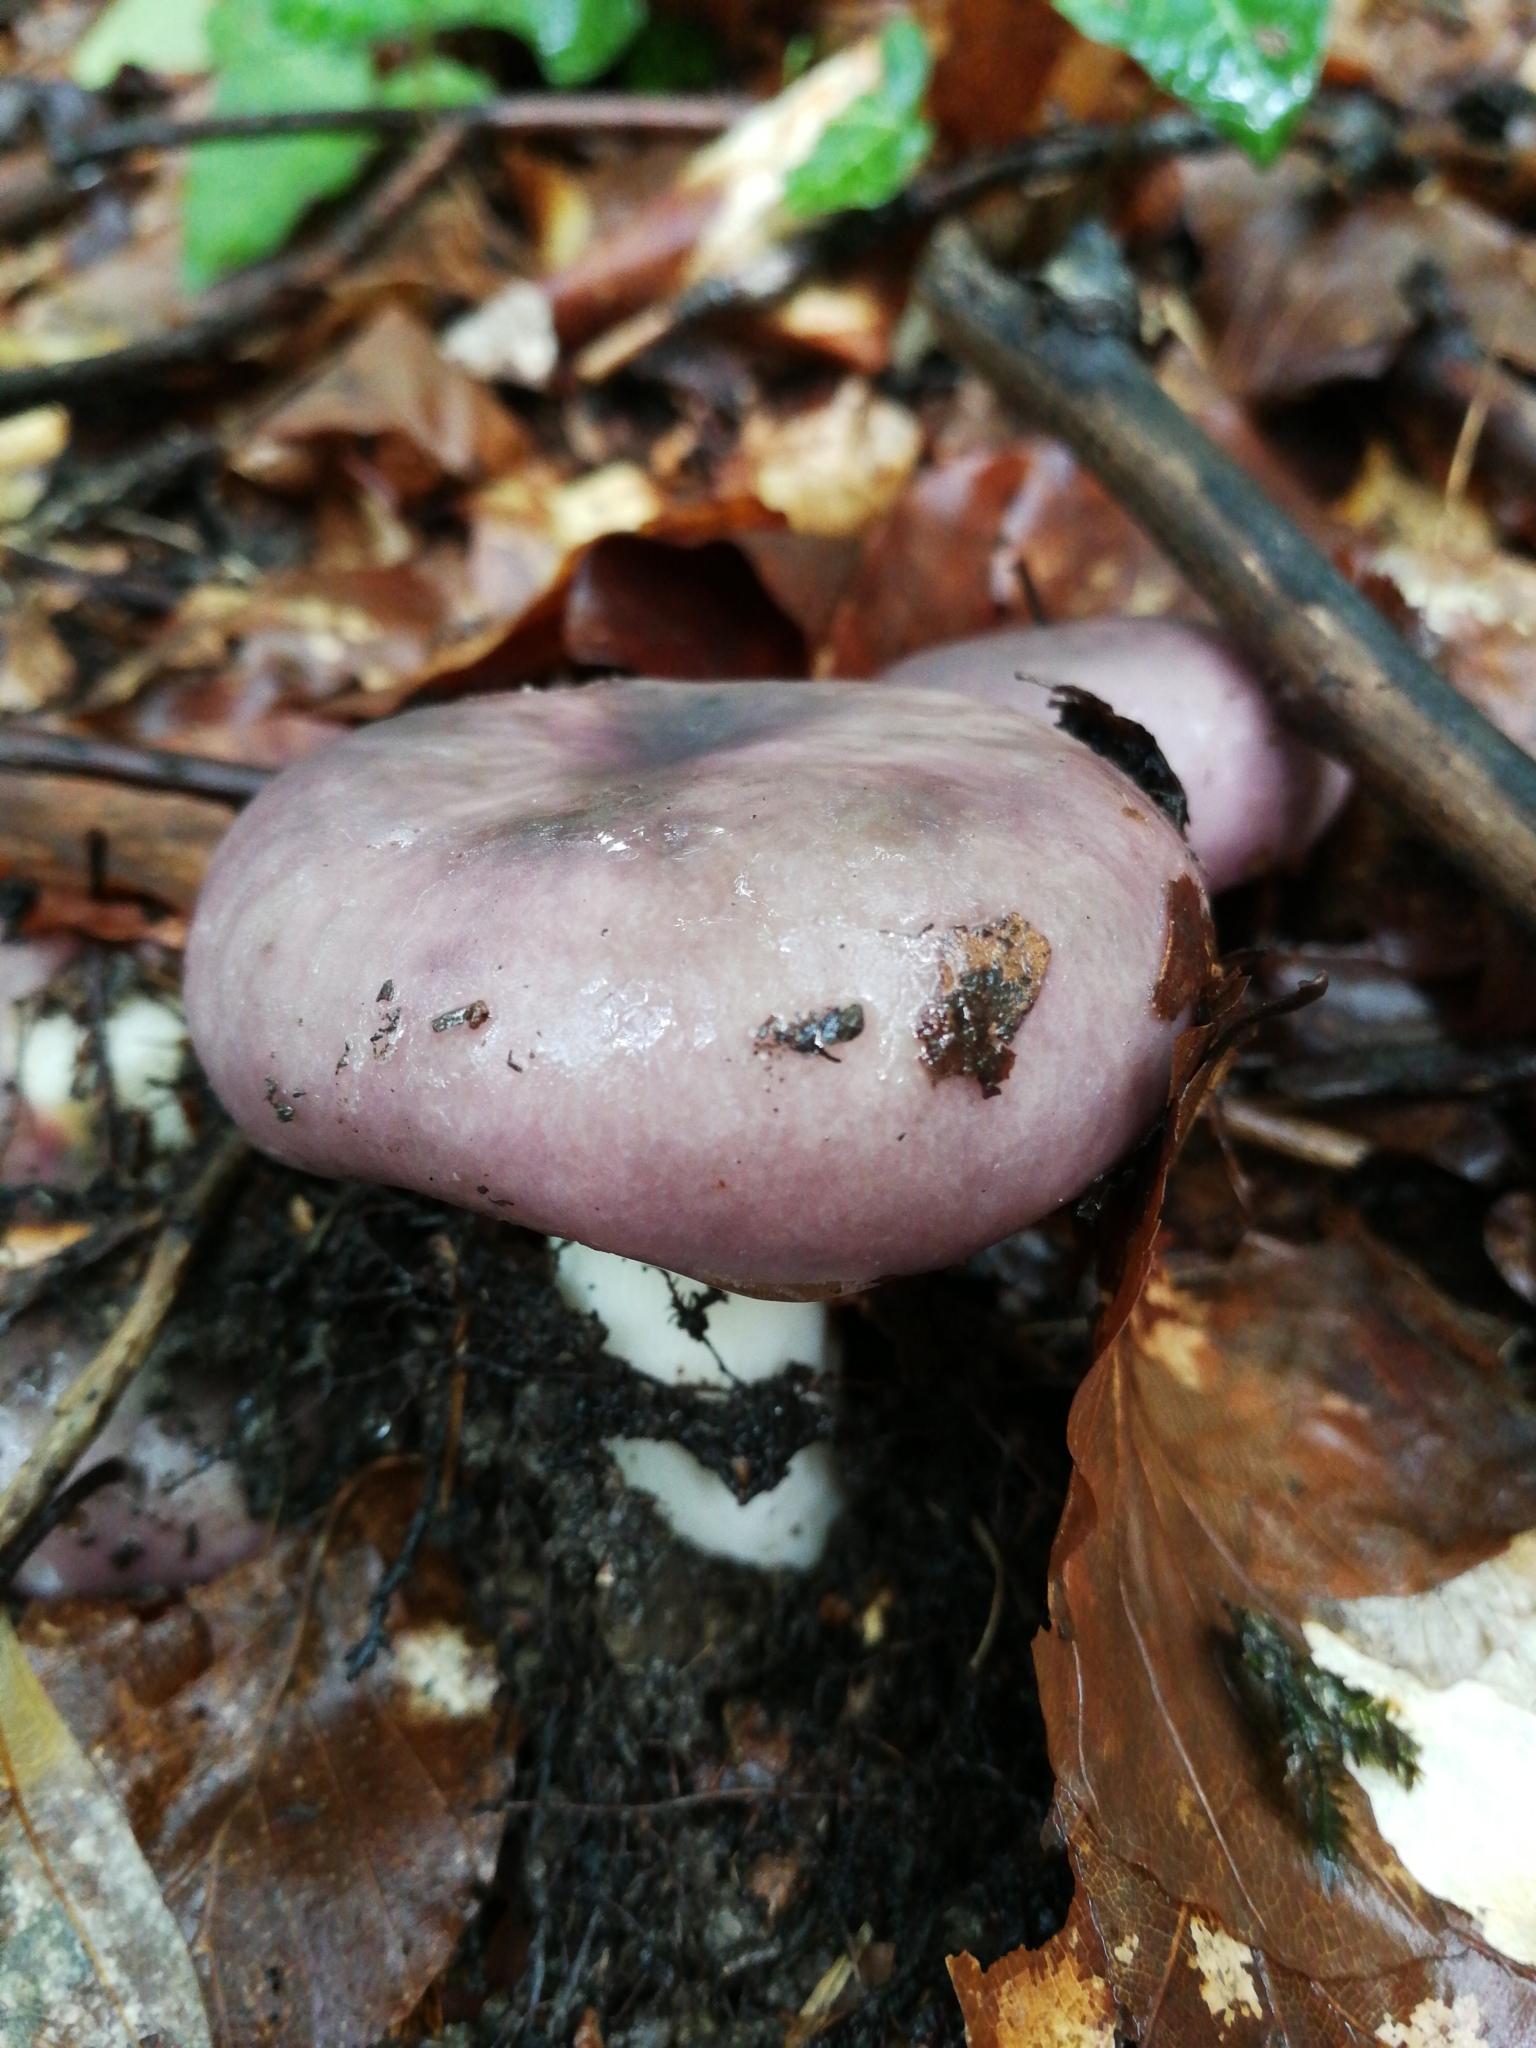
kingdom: Fungi
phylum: Basidiomycota
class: Agaricomycetes
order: Russulales
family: Russulaceae
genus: Russula
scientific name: Russula cyanoxantha
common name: Charcoal burner
